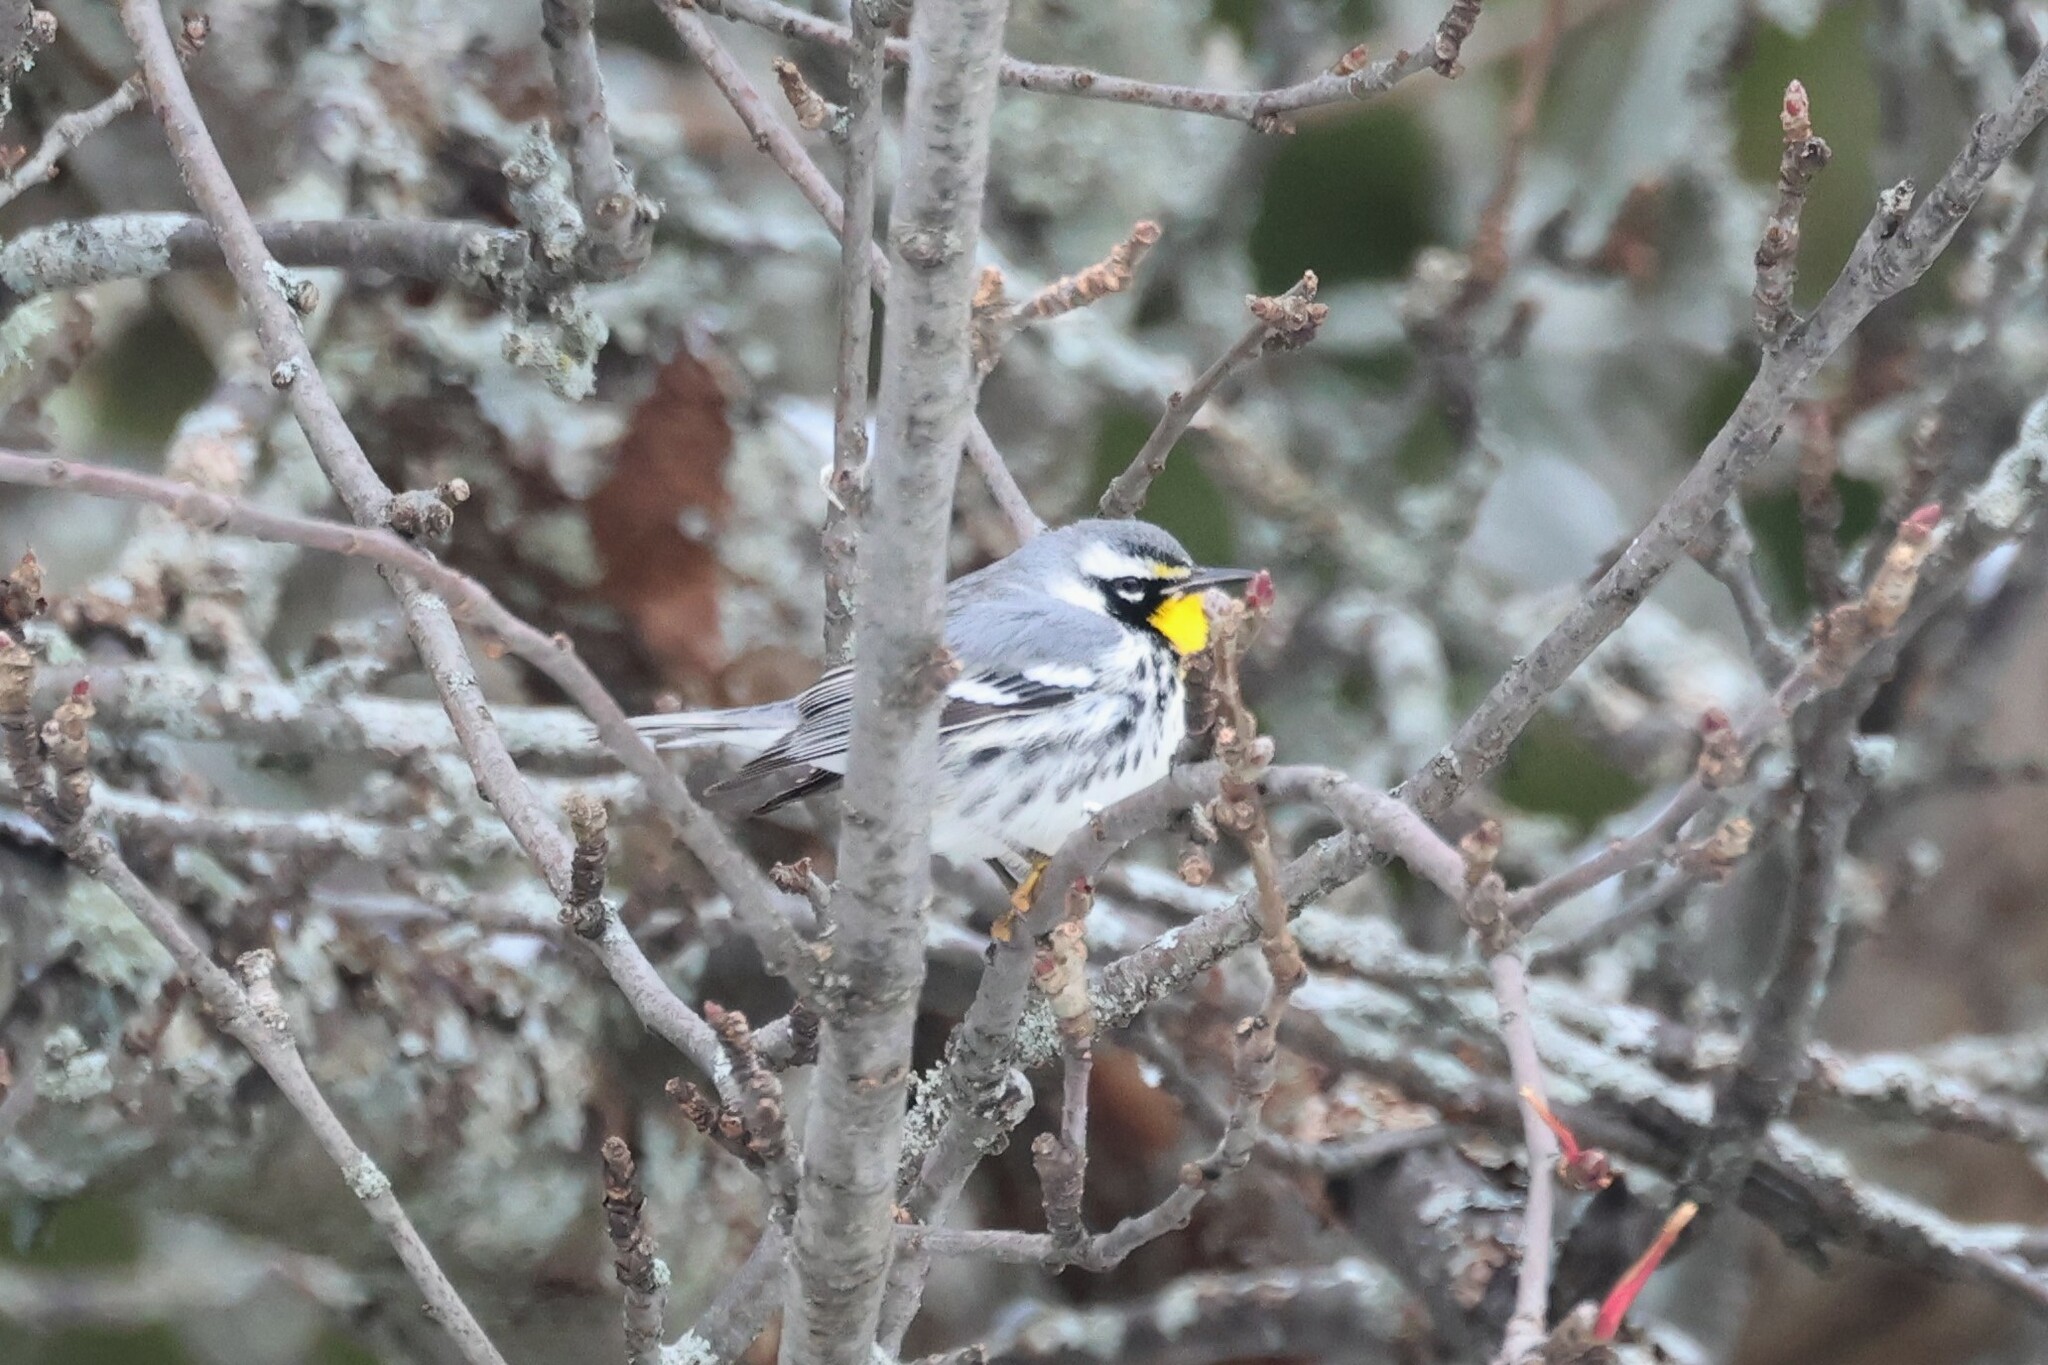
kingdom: Animalia
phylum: Chordata
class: Aves
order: Passeriformes
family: Parulidae
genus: Setophaga
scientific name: Setophaga dominica
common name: Yellow-throated warbler
